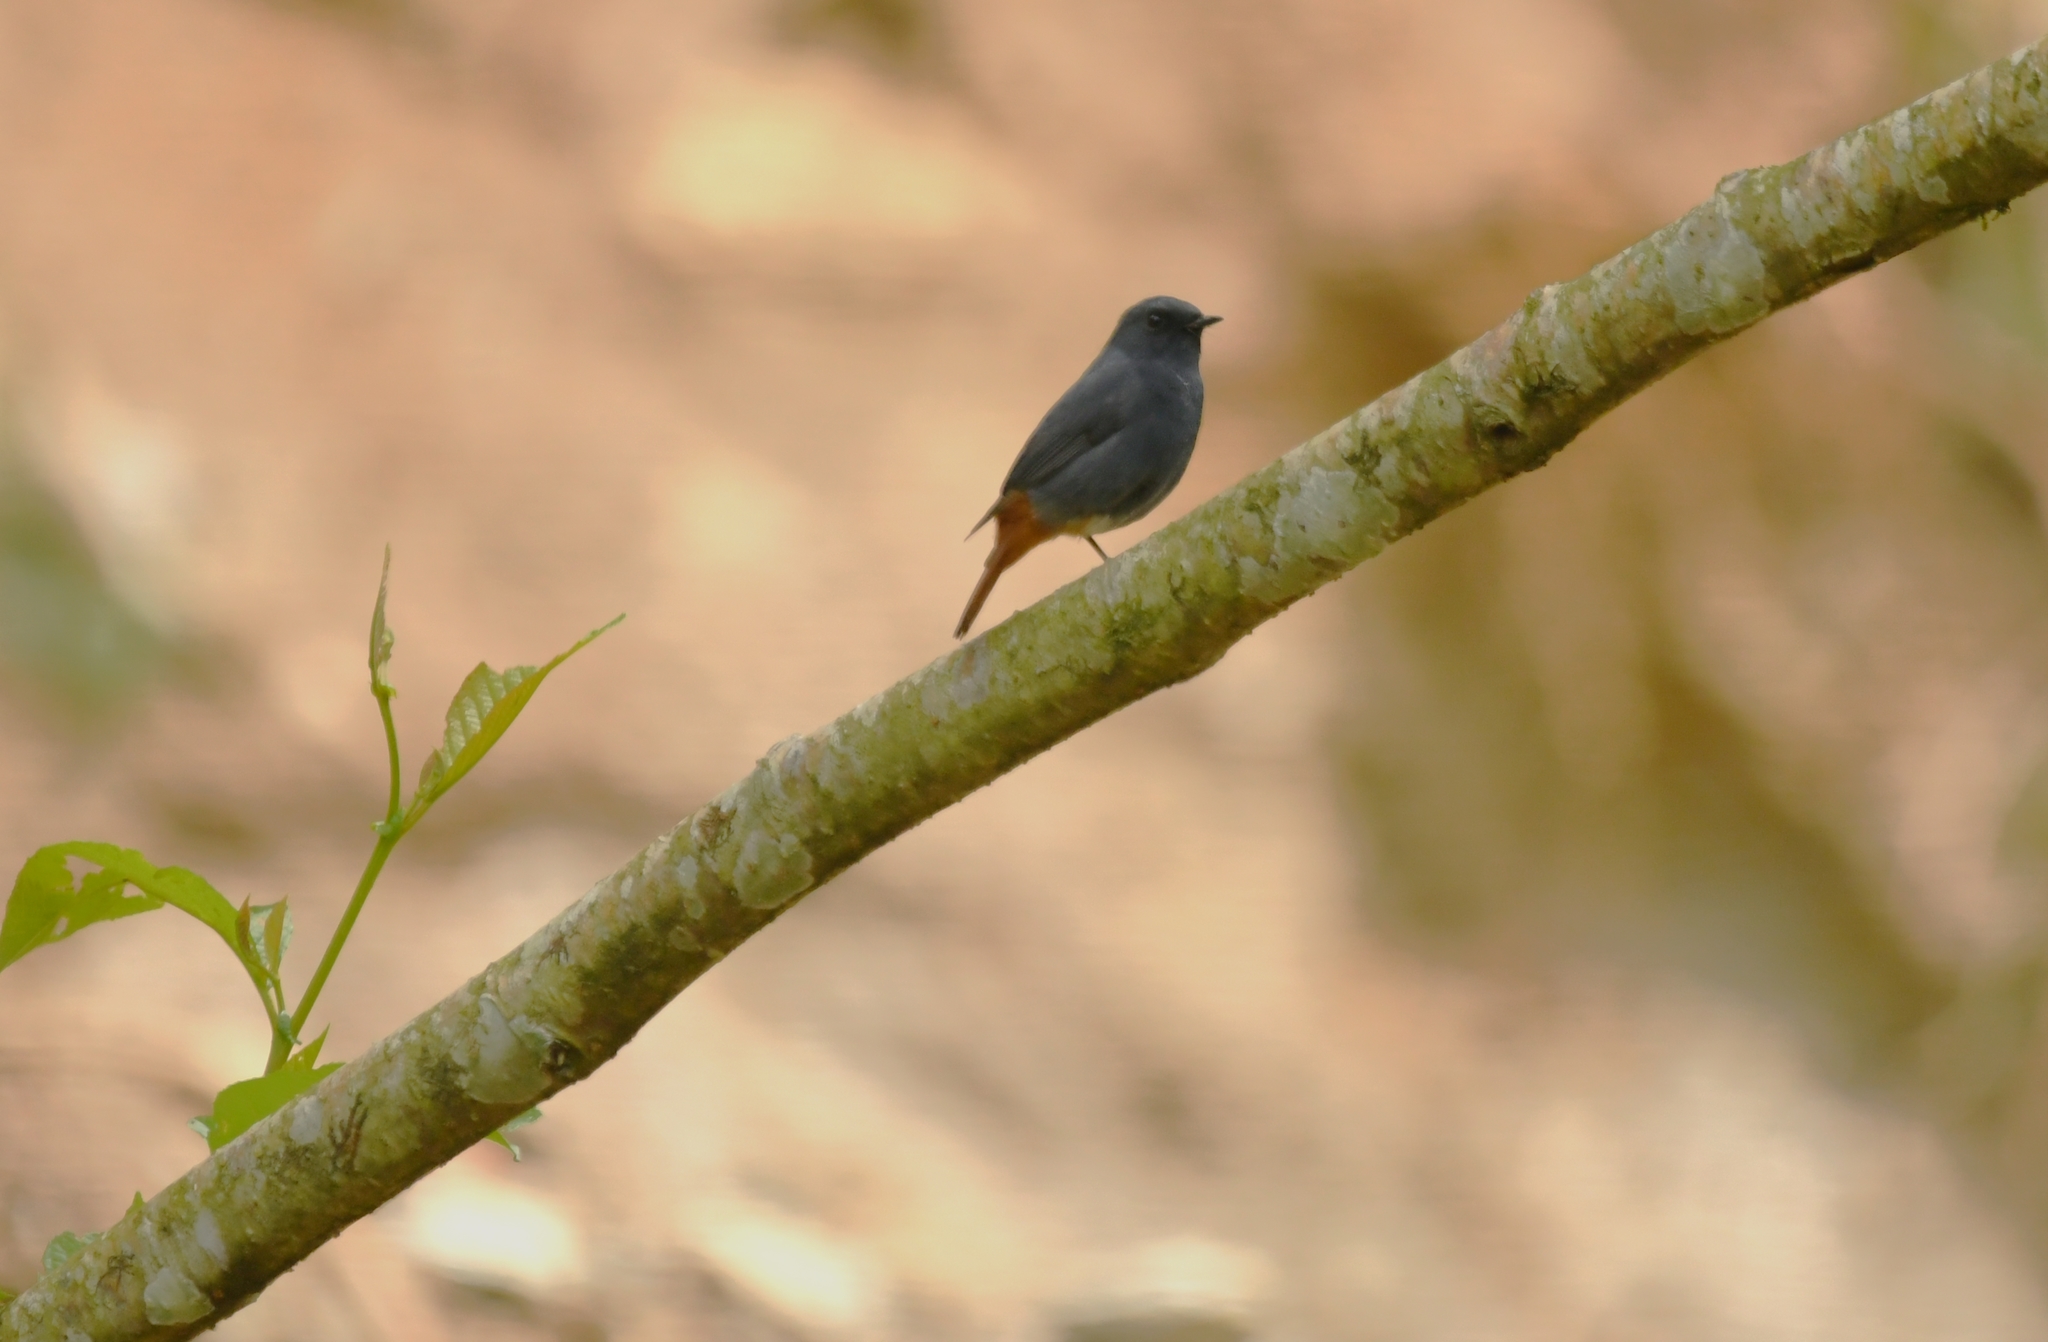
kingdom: Animalia
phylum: Chordata
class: Aves
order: Passeriformes
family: Muscicapidae
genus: Phoenicurus
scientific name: Phoenicurus fuliginosus
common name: Plumbeous water redstart
